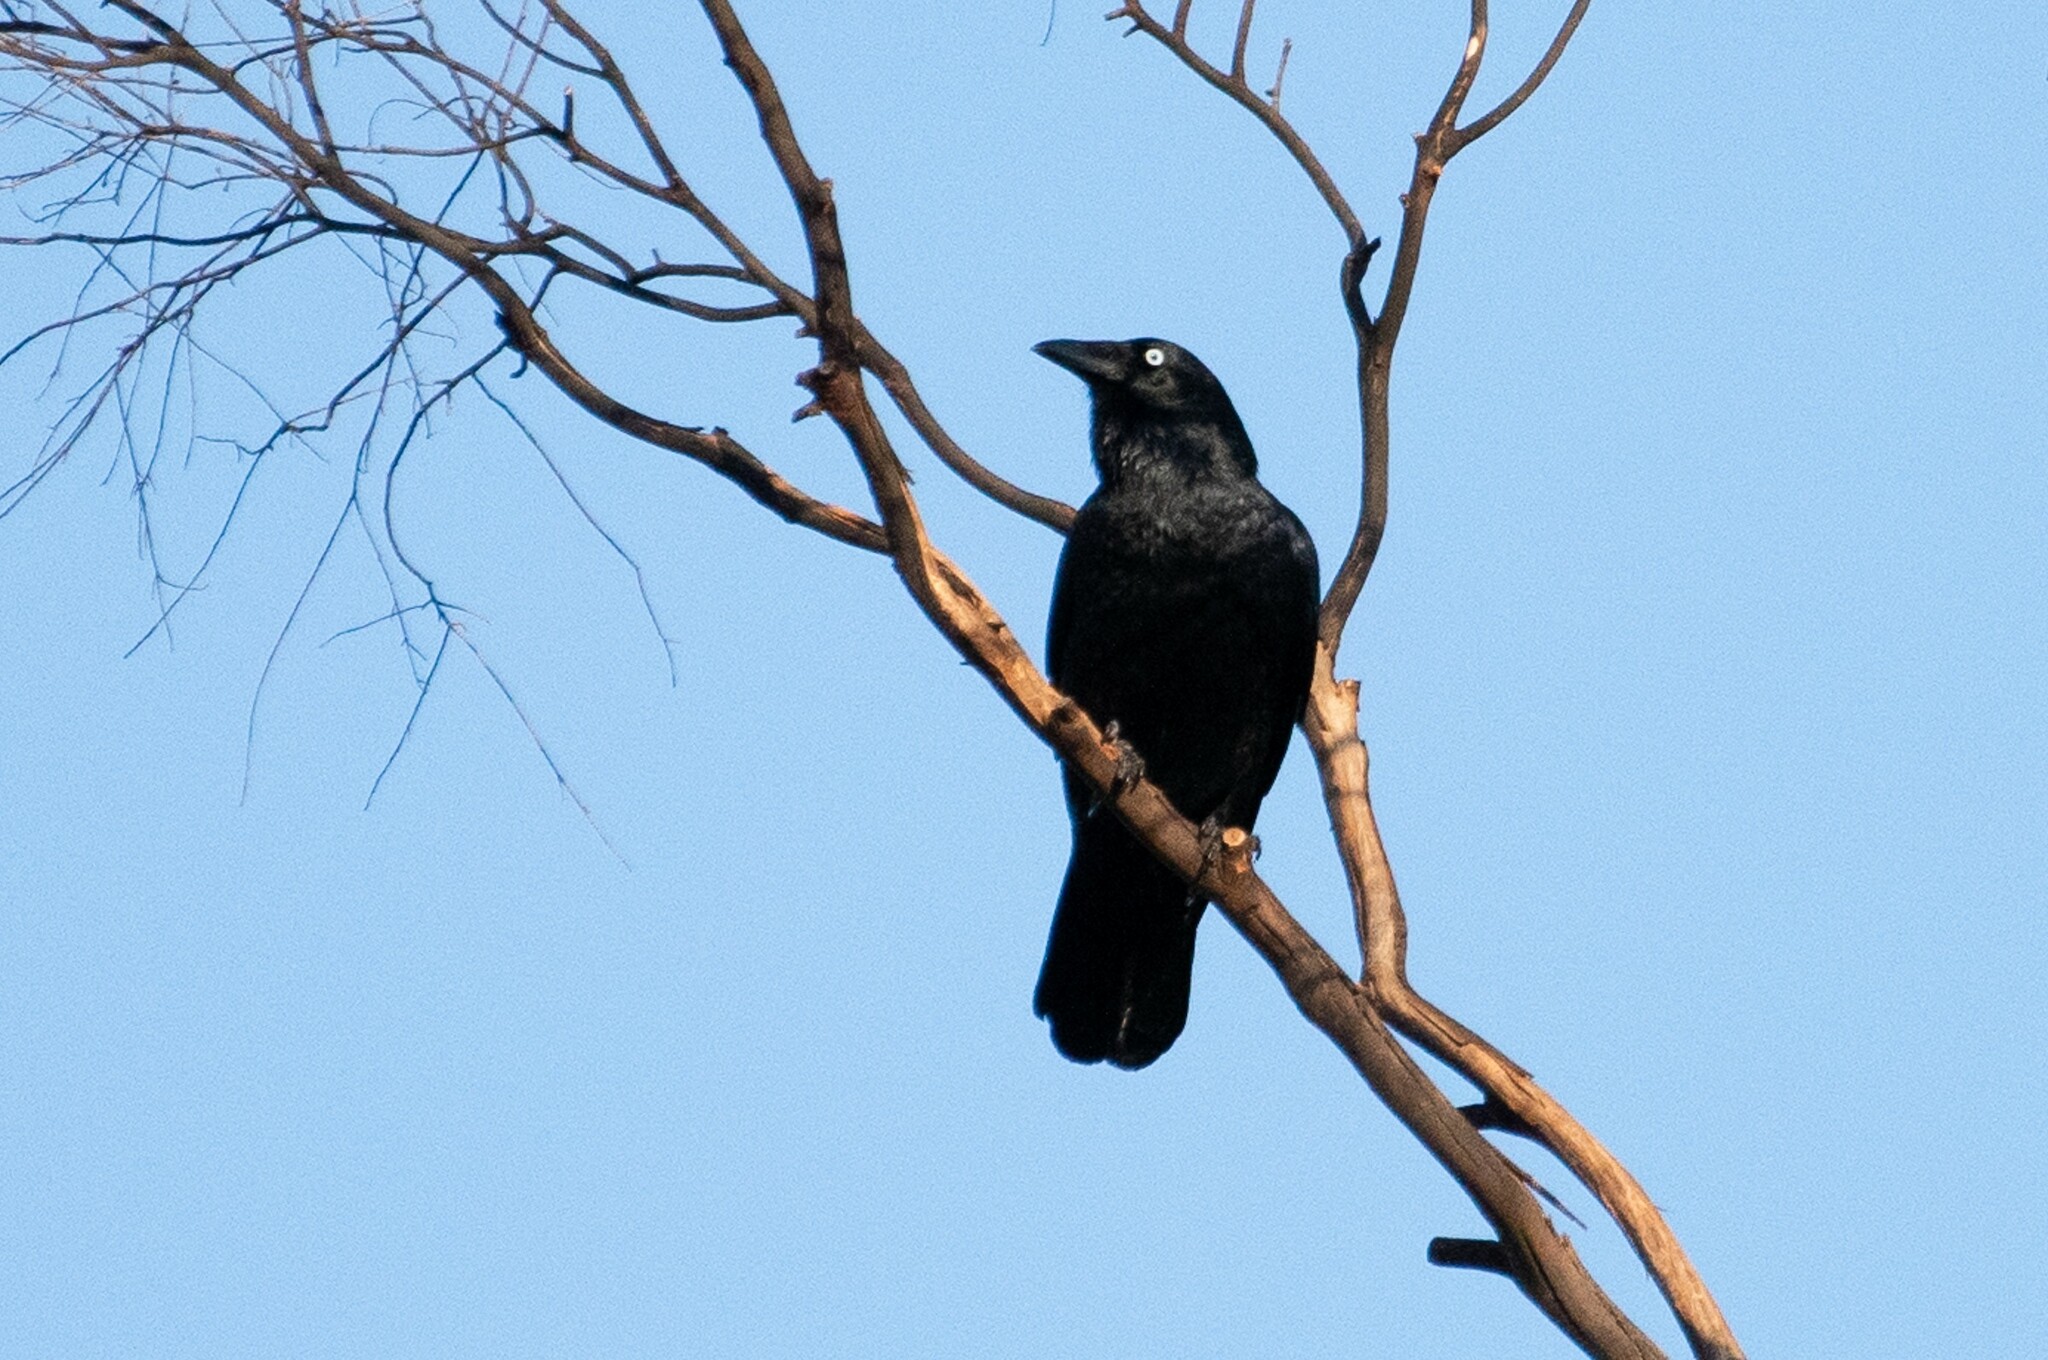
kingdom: Animalia
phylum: Chordata
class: Aves
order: Passeriformes
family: Corvidae
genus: Corvus
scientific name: Corvus mellori
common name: Little raven
